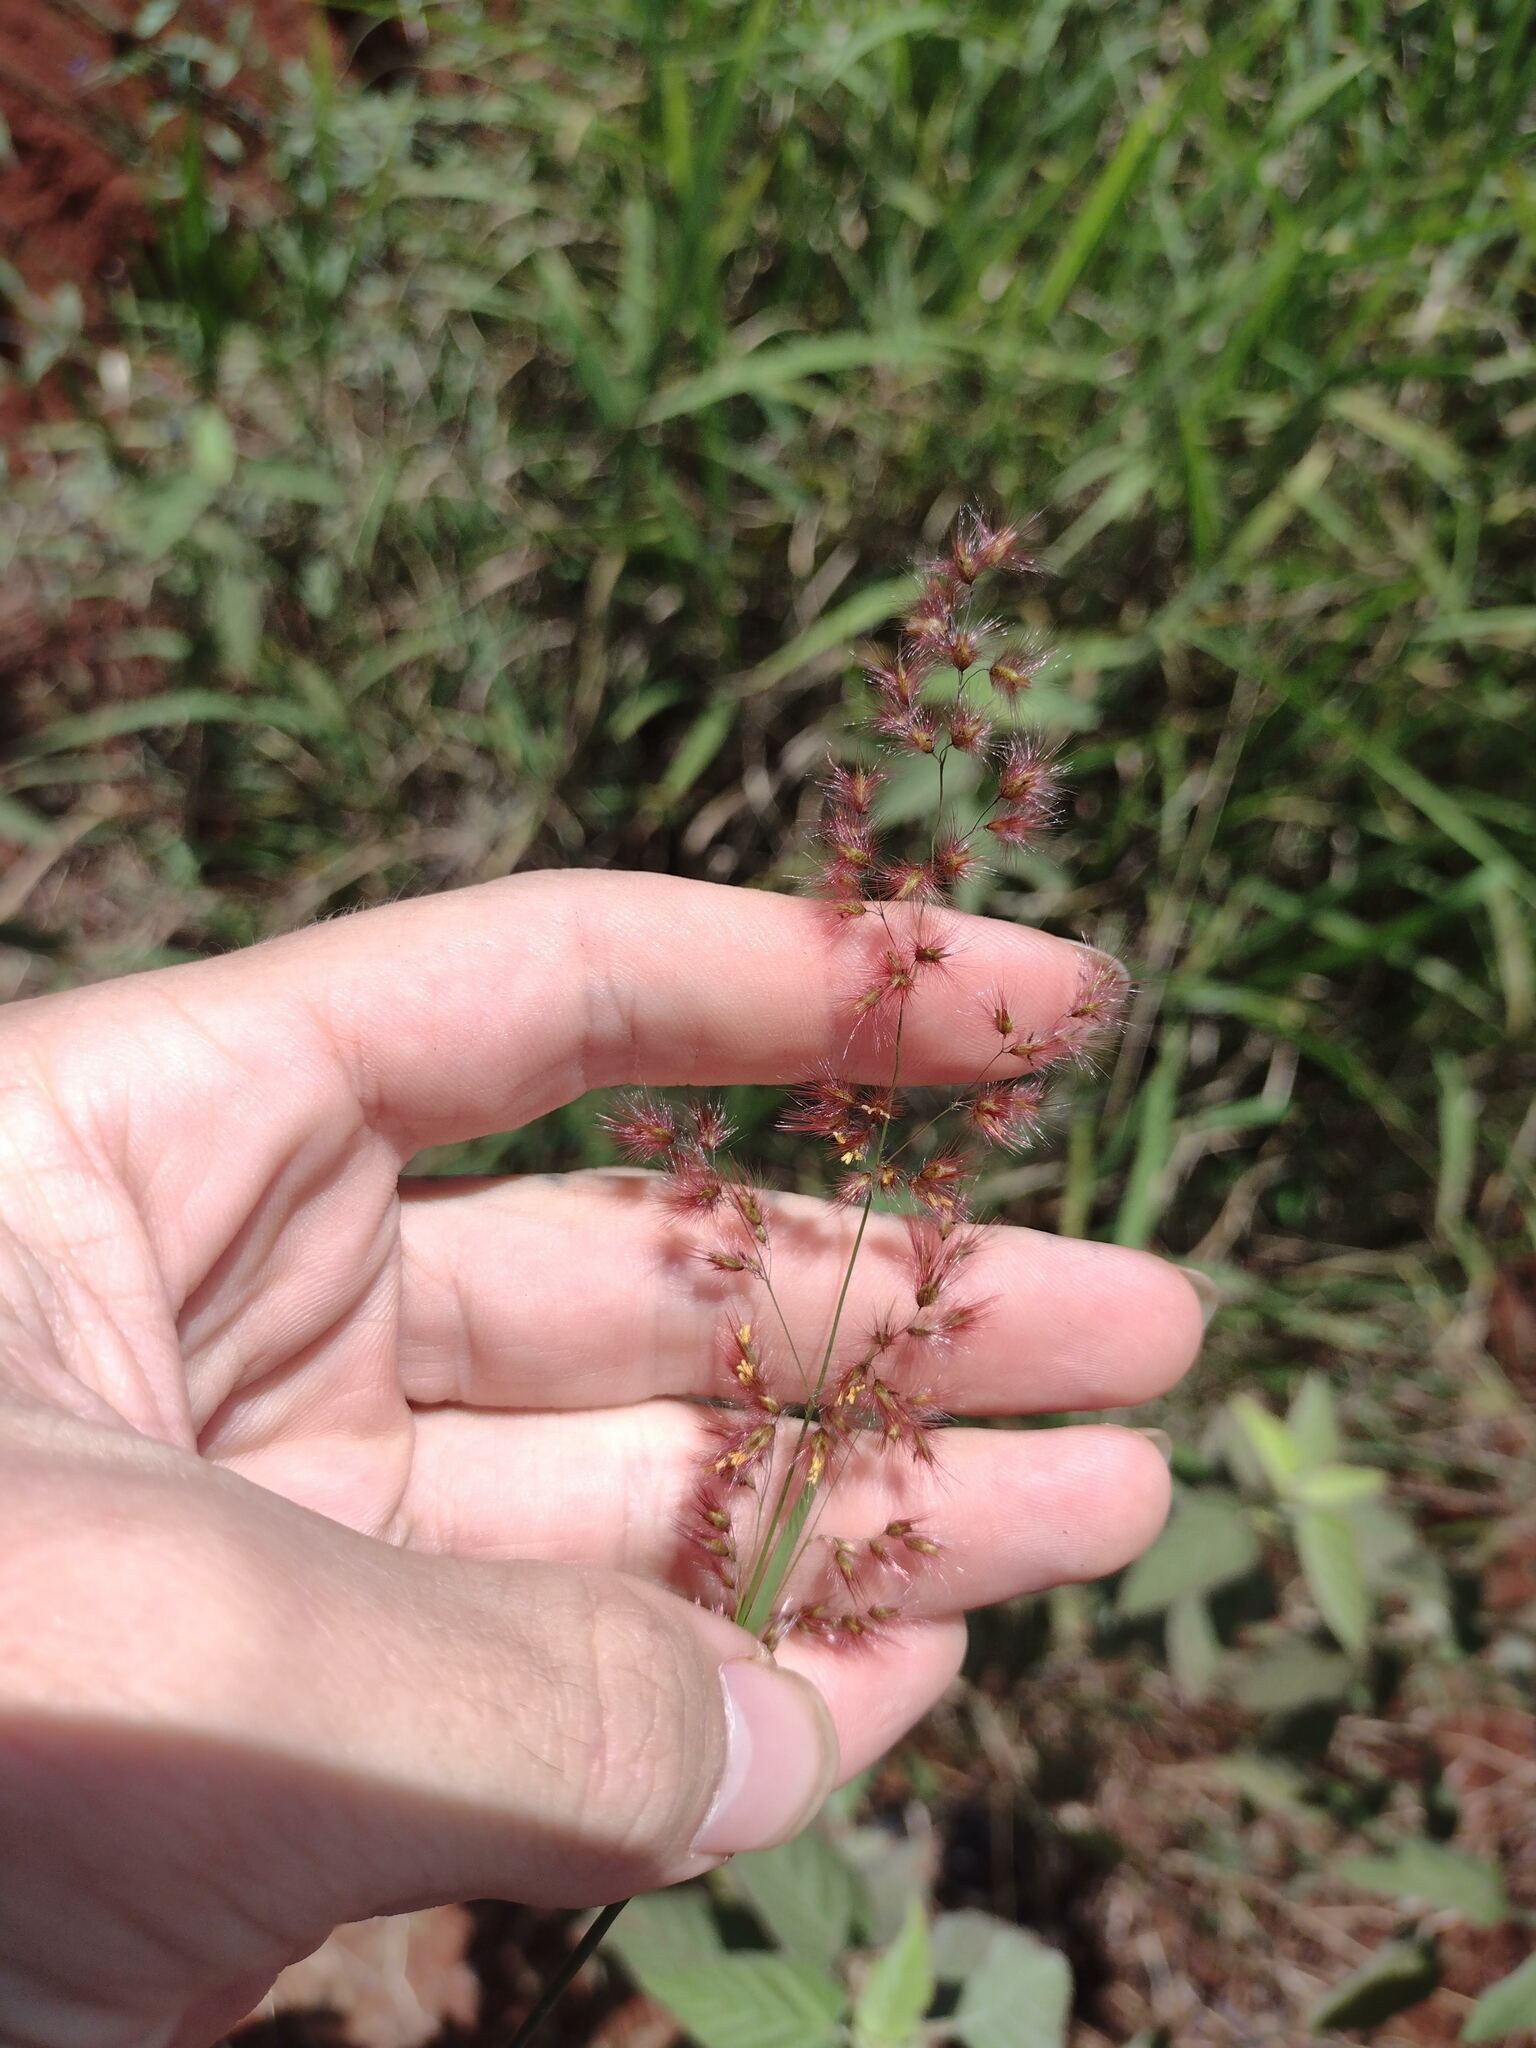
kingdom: Plantae
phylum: Tracheophyta
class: Liliopsida
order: Poales
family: Poaceae
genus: Melinis
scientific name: Melinis repens
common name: Rose natal grass
